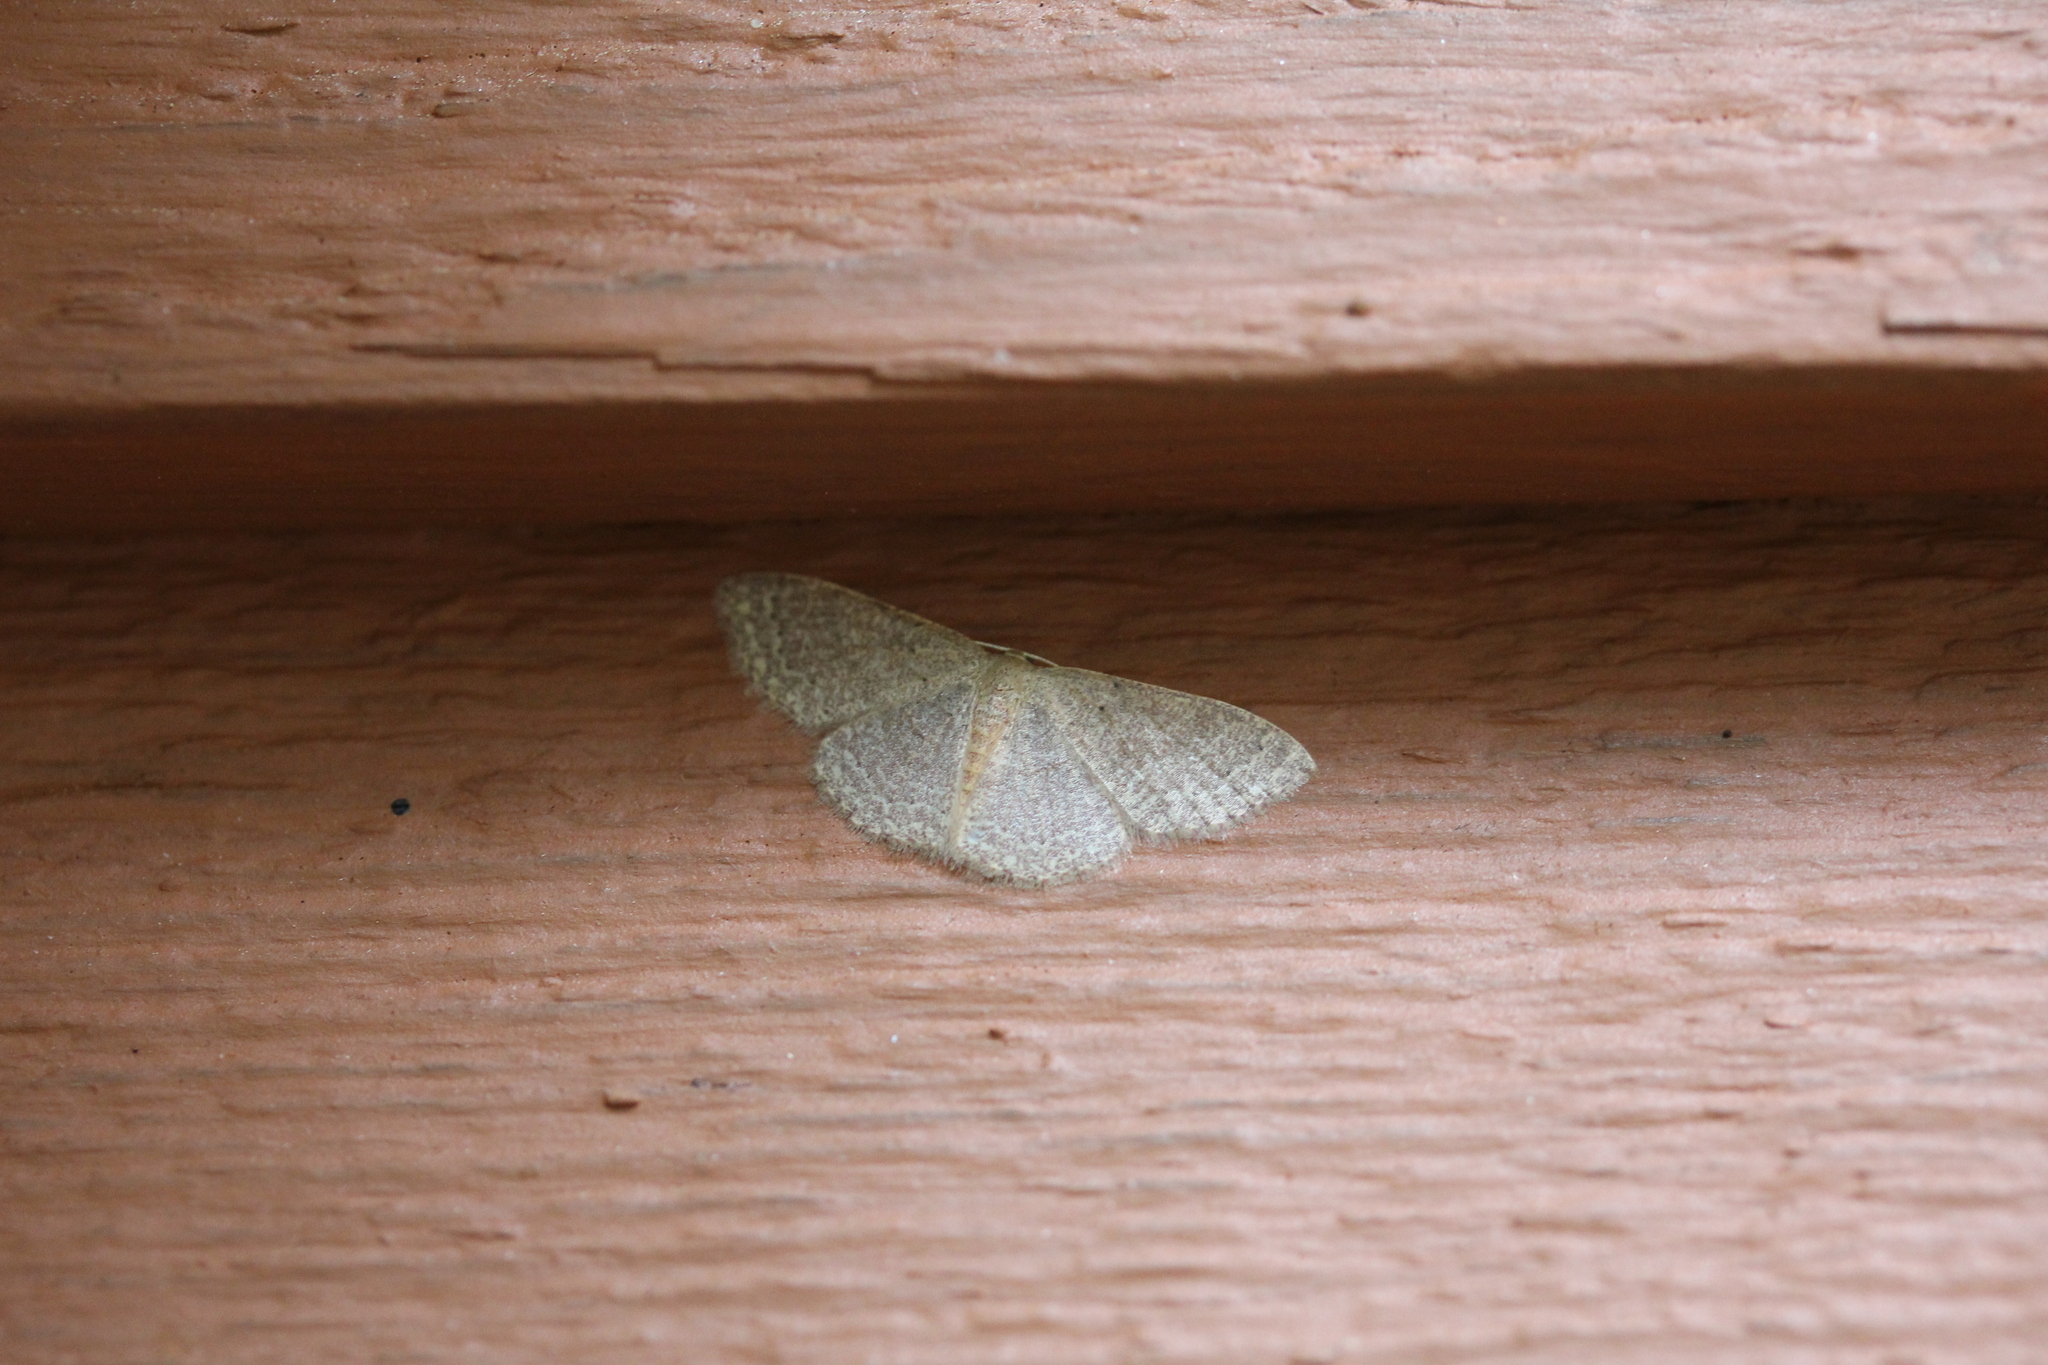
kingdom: Animalia
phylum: Arthropoda
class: Insecta
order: Lepidoptera
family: Geometridae
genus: Pleuroprucha
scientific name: Pleuroprucha insulsaria
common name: Common tan wave
